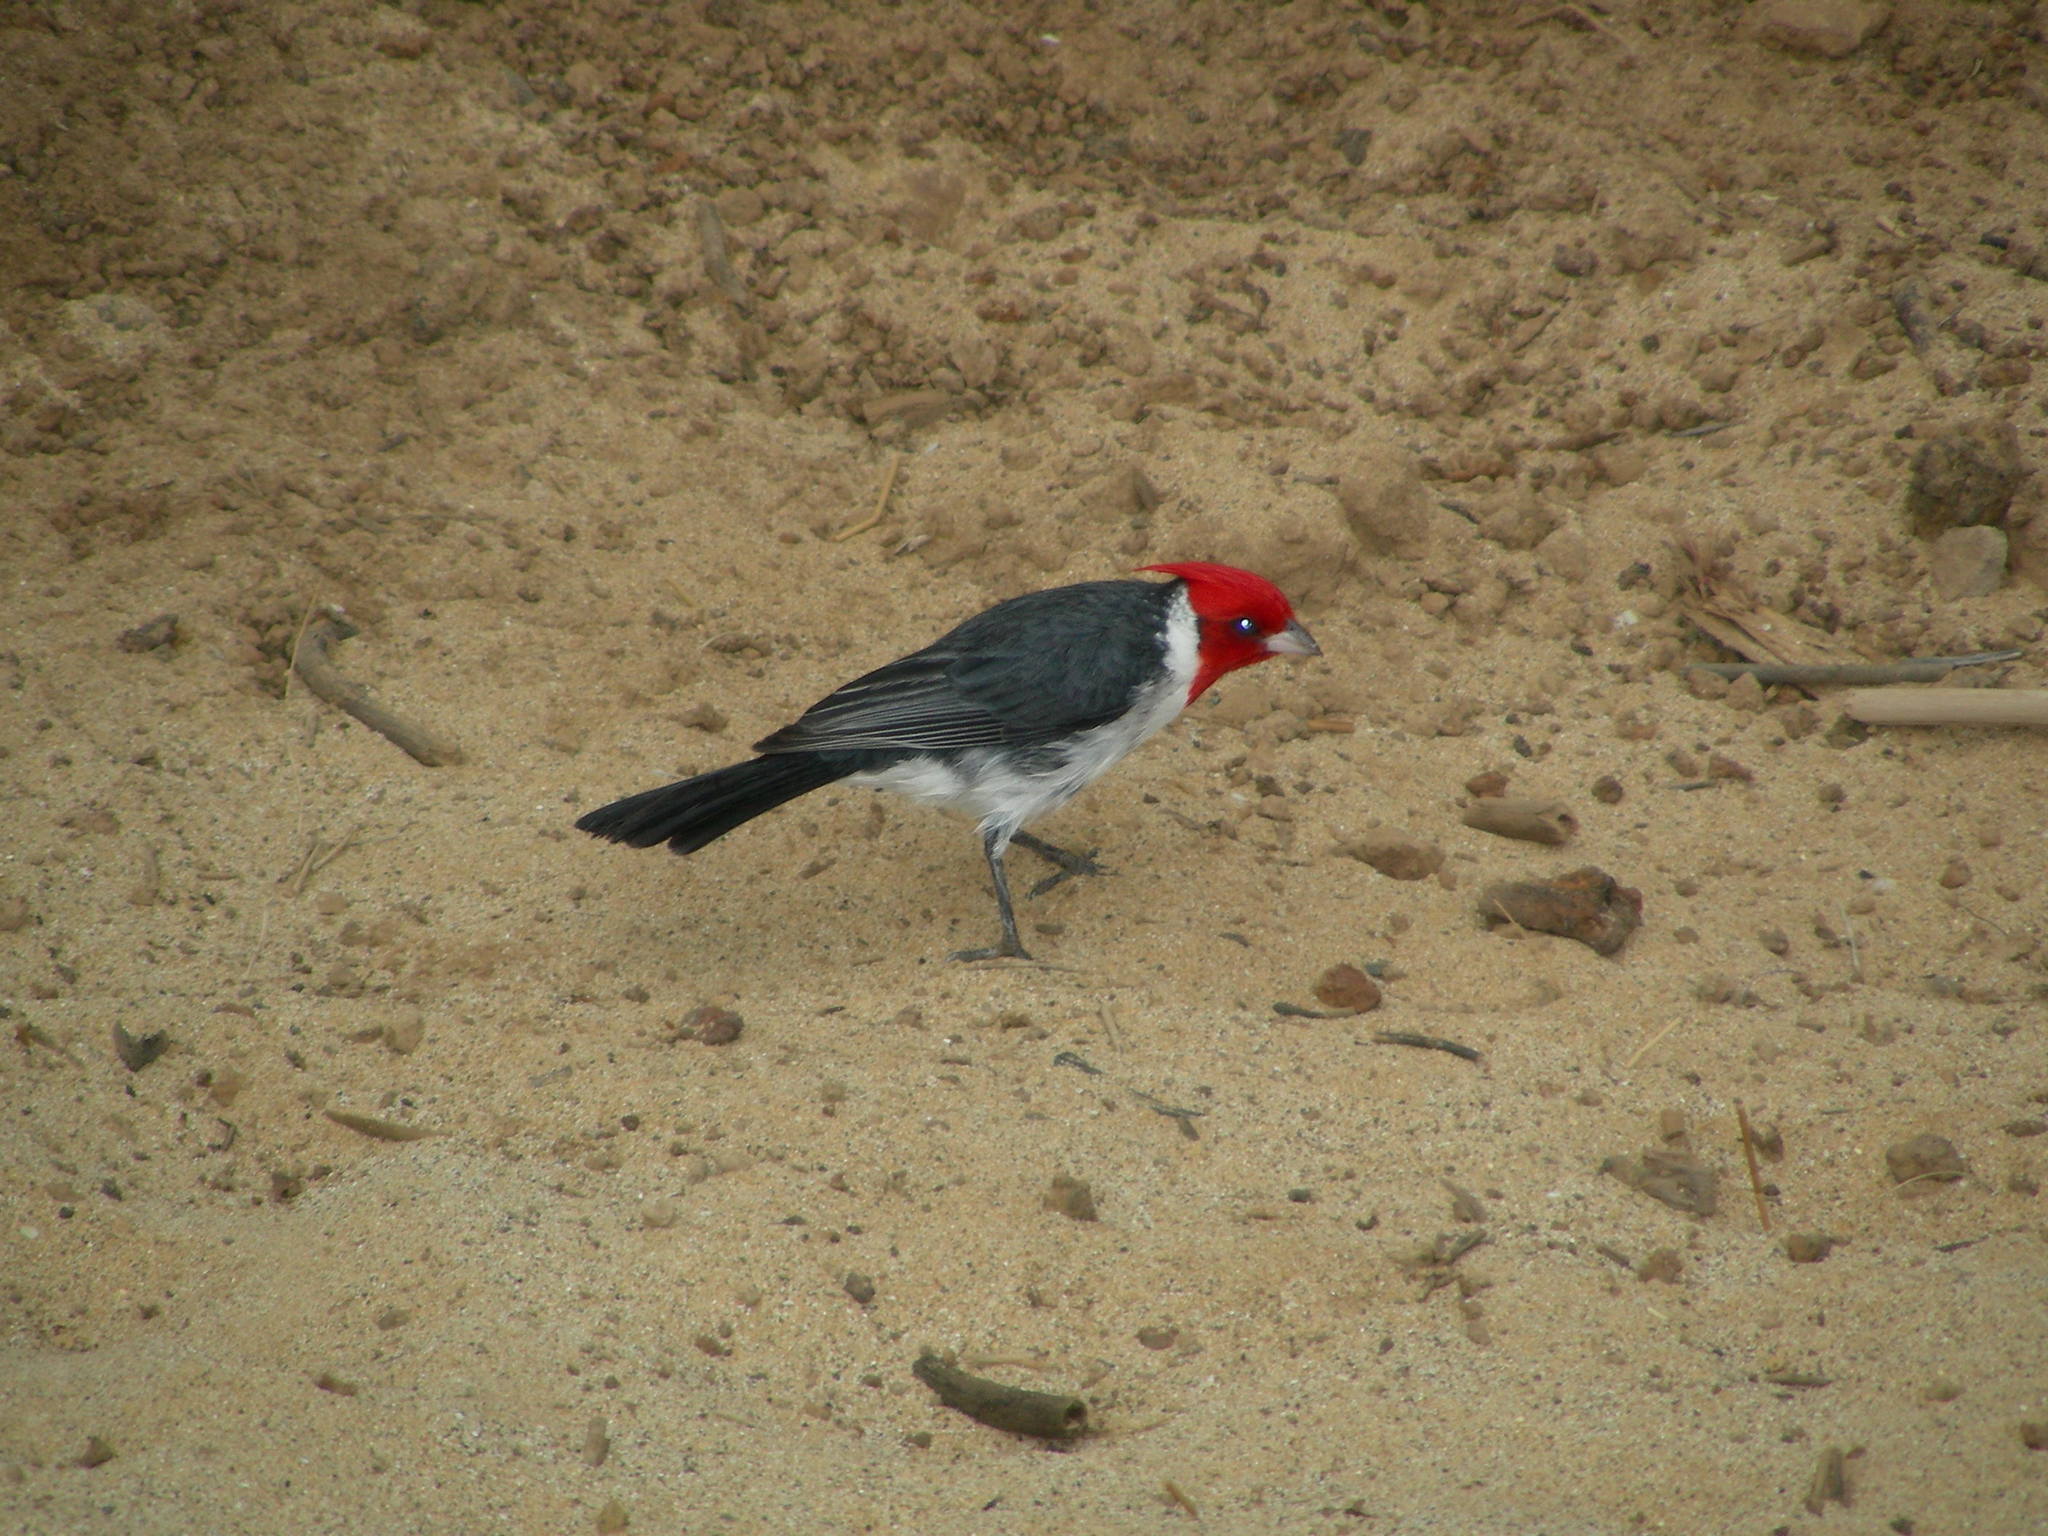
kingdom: Animalia
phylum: Chordata
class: Aves
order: Passeriformes
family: Thraupidae
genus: Paroaria
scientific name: Paroaria coronata
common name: Red-crested cardinal
